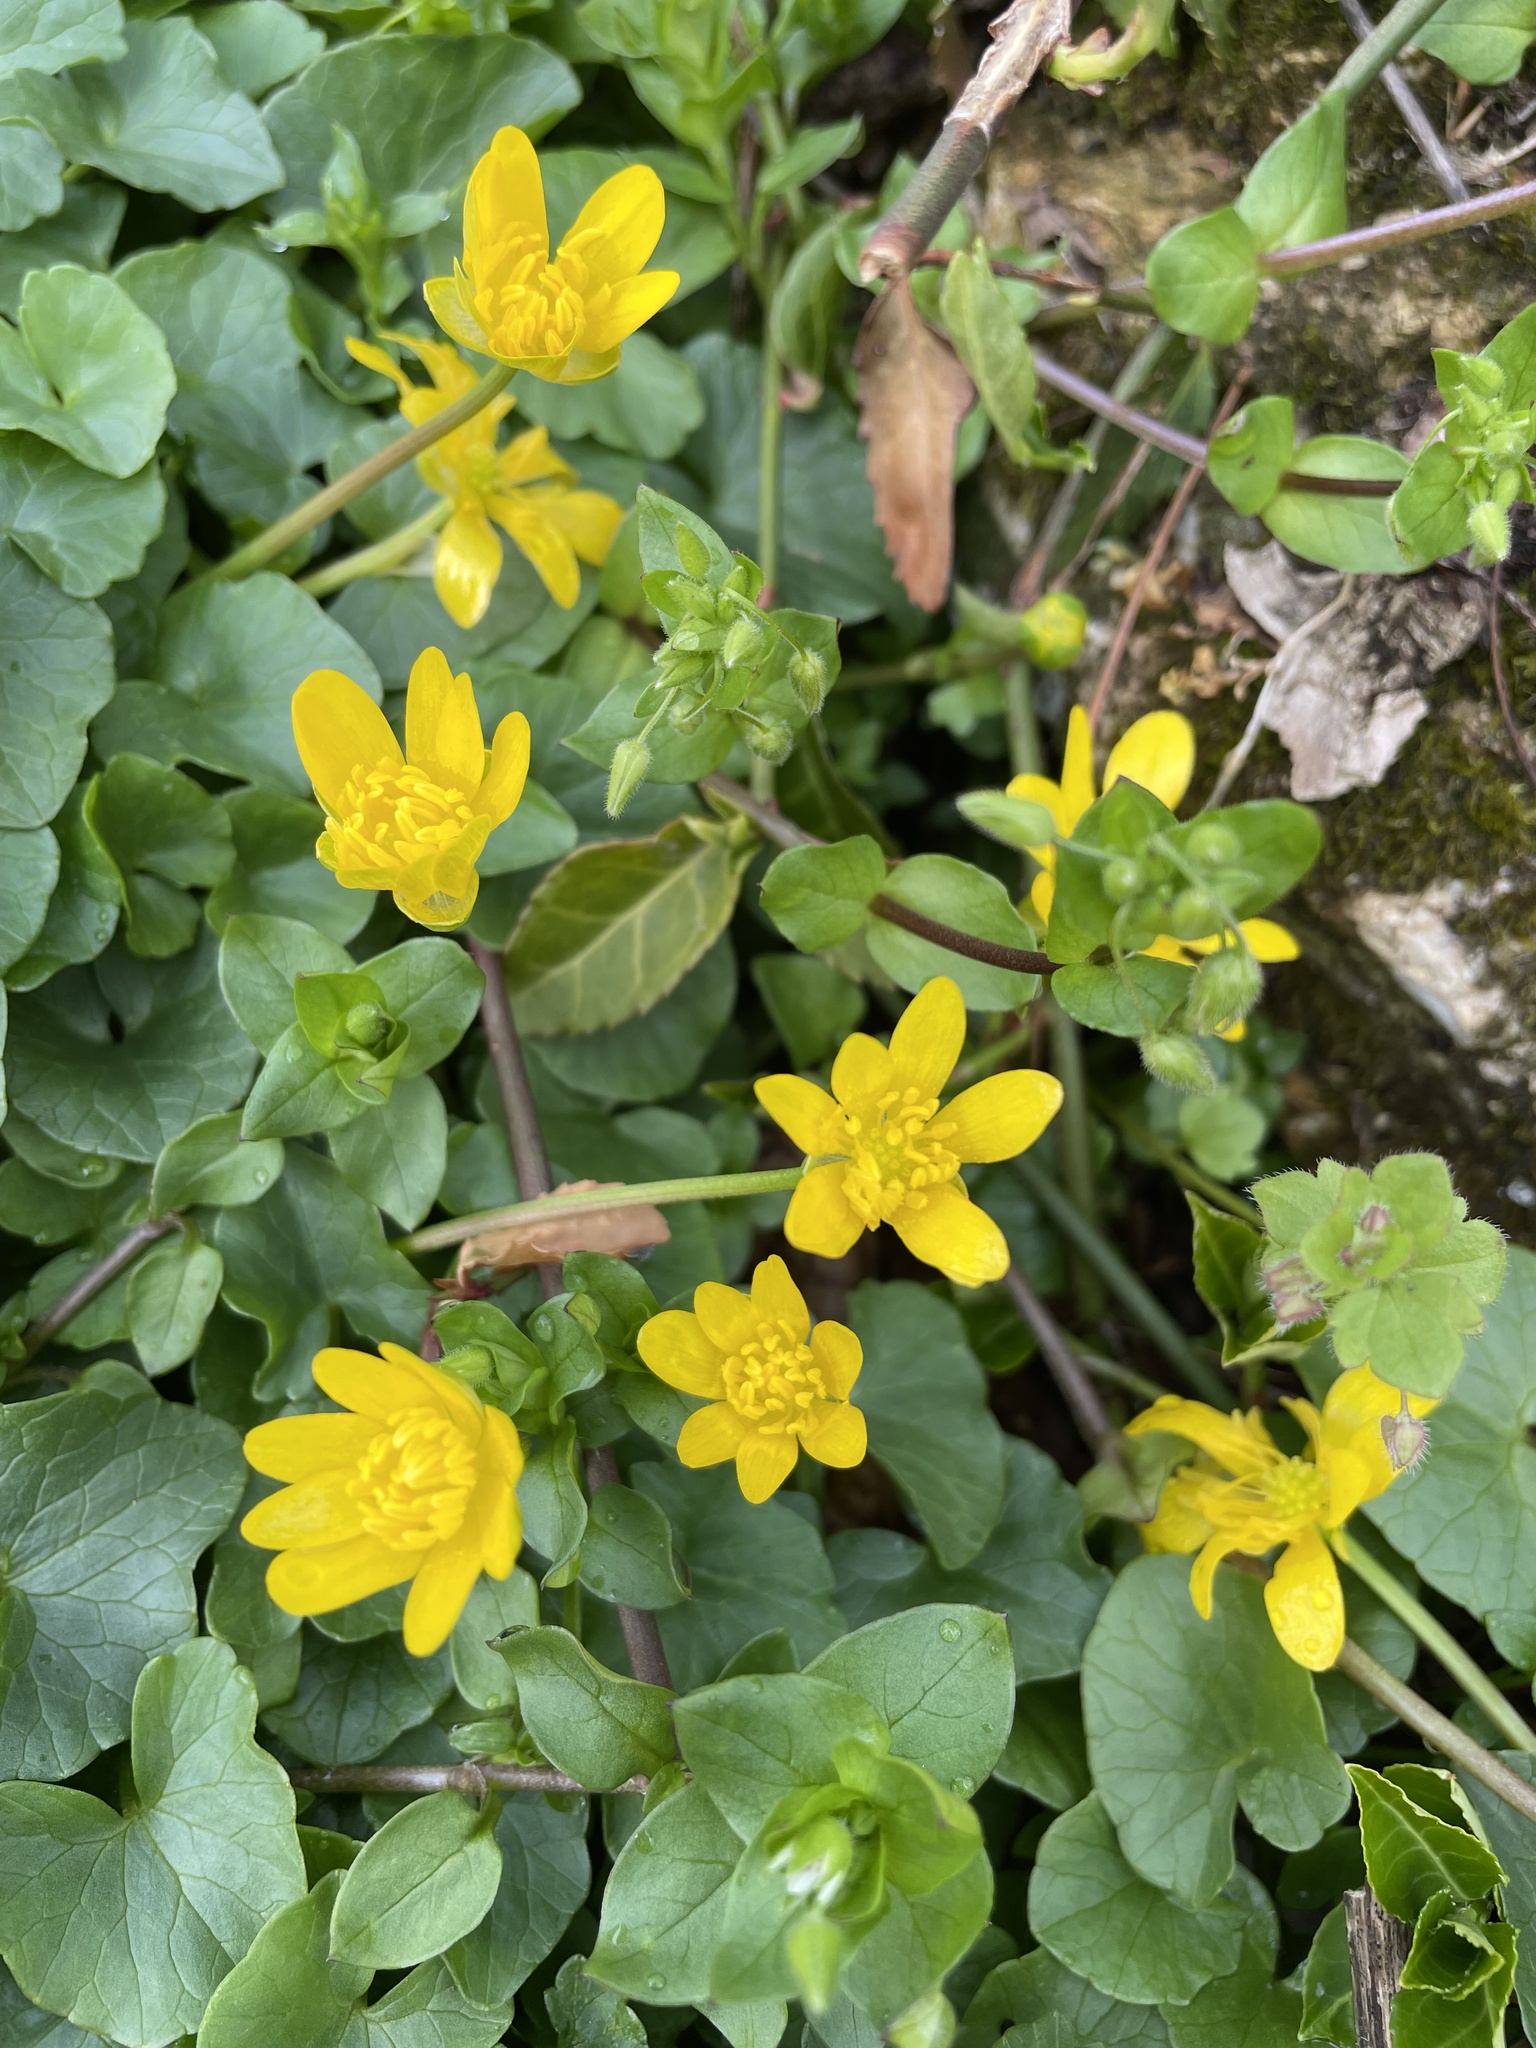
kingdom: Plantae
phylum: Tracheophyta
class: Magnoliopsida
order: Ranunculales
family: Ranunculaceae
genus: Ficaria
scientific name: Ficaria verna
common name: Lesser celandine
